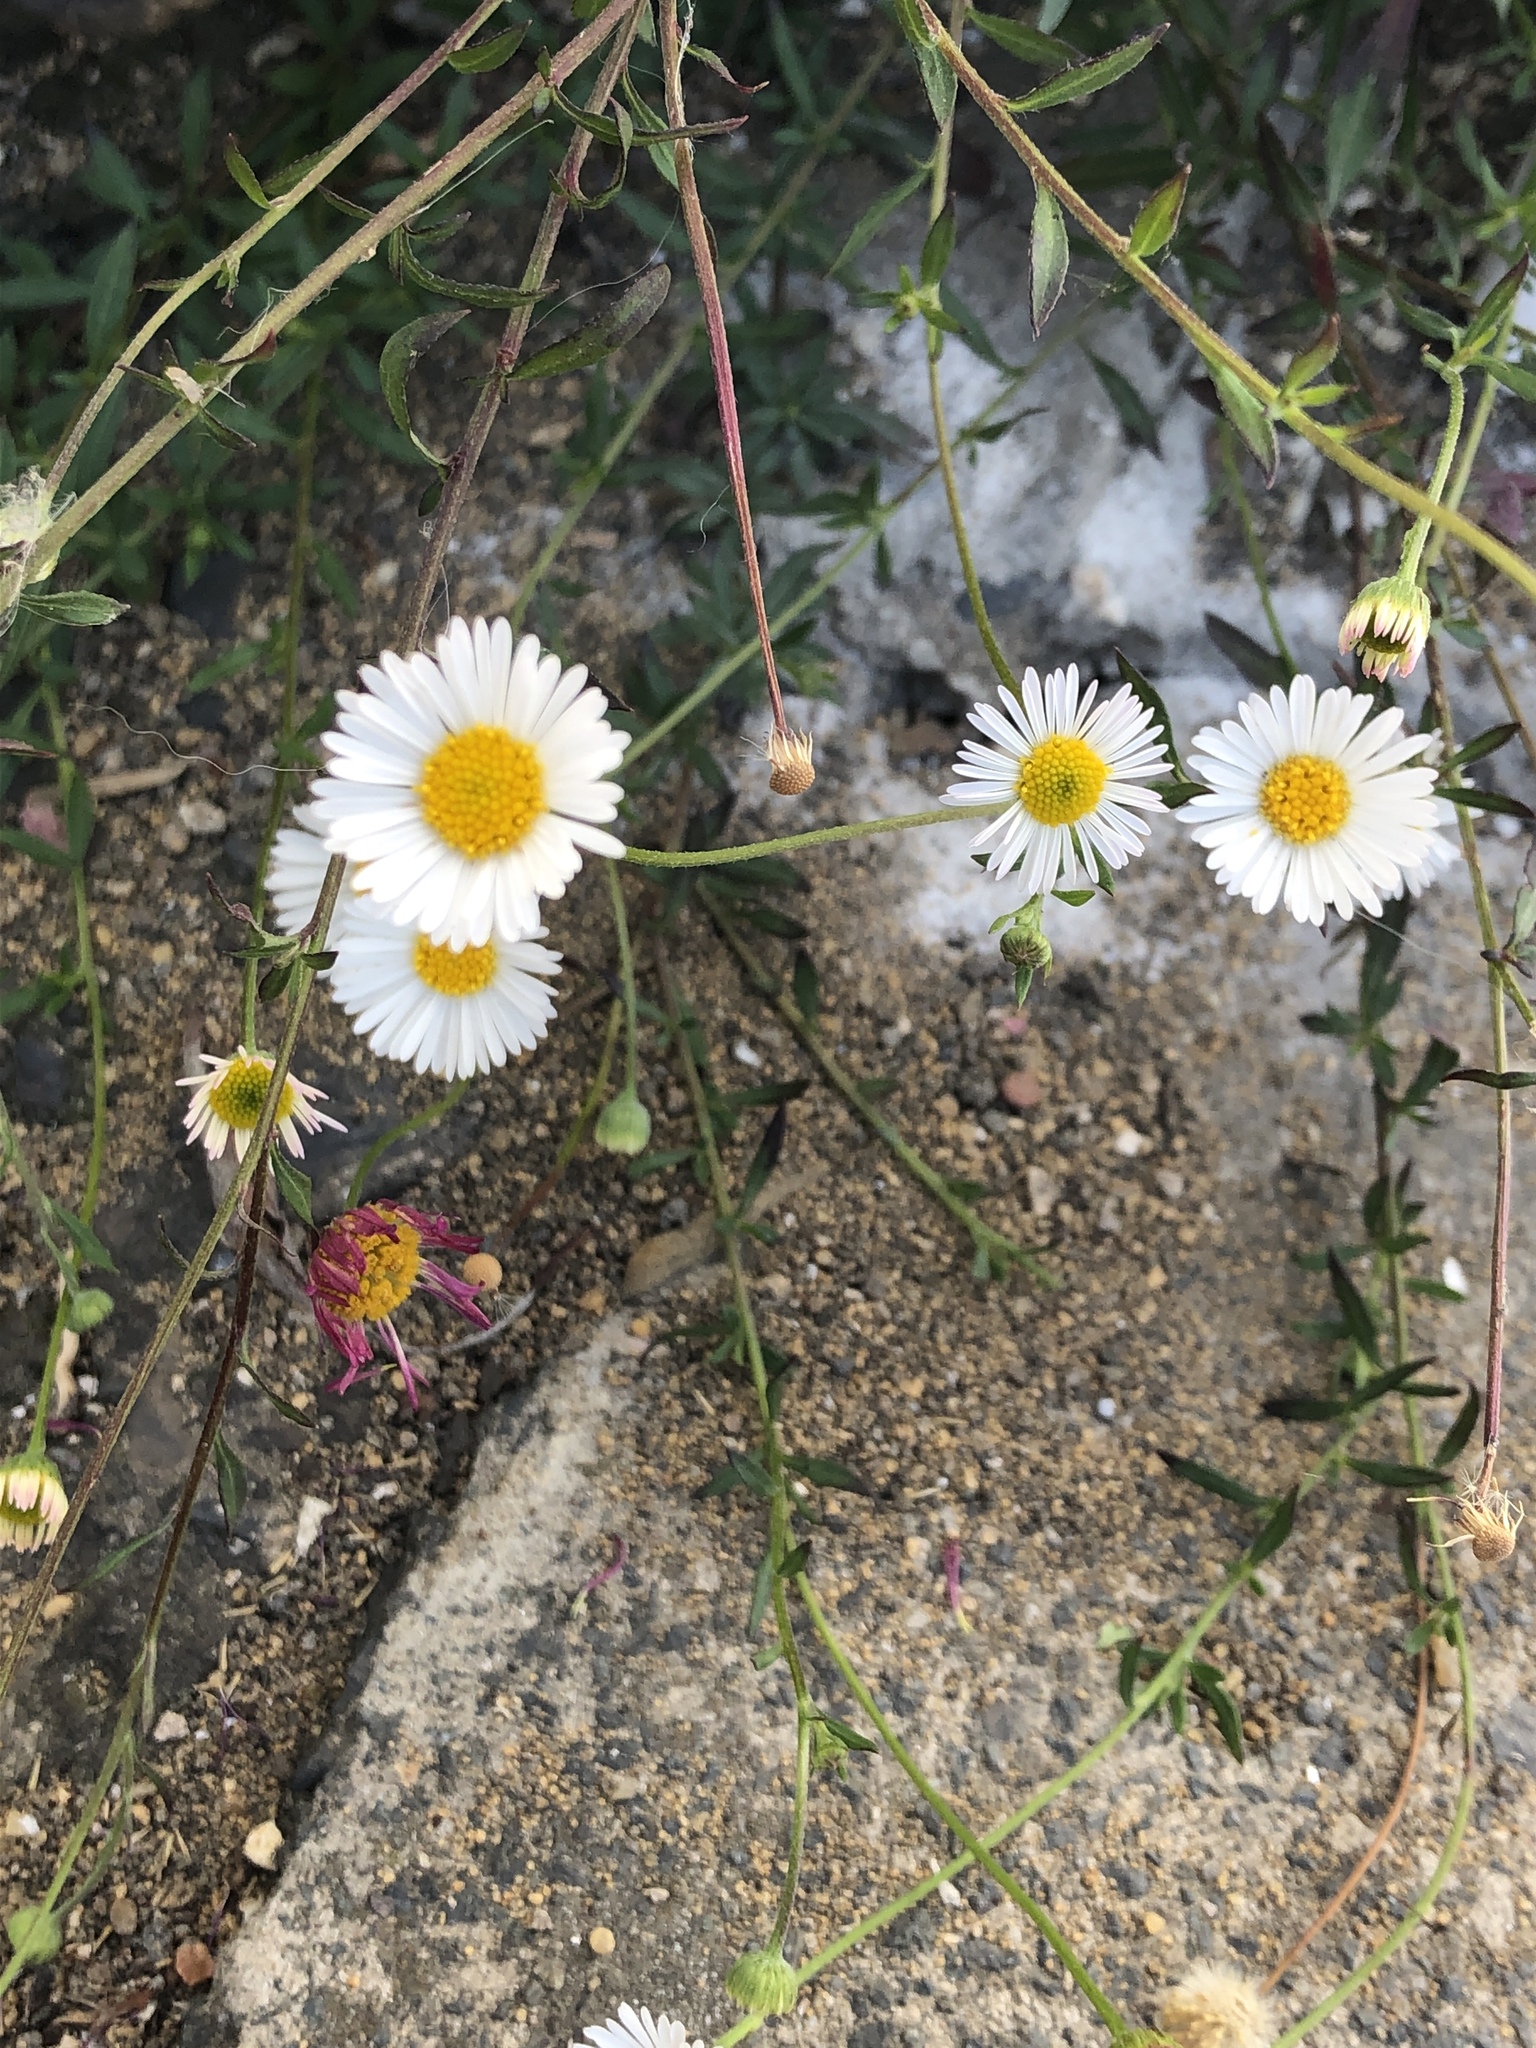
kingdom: Plantae
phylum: Tracheophyta
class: Magnoliopsida
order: Asterales
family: Asteraceae
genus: Erigeron
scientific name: Erigeron karvinskianus
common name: Mexican fleabane
